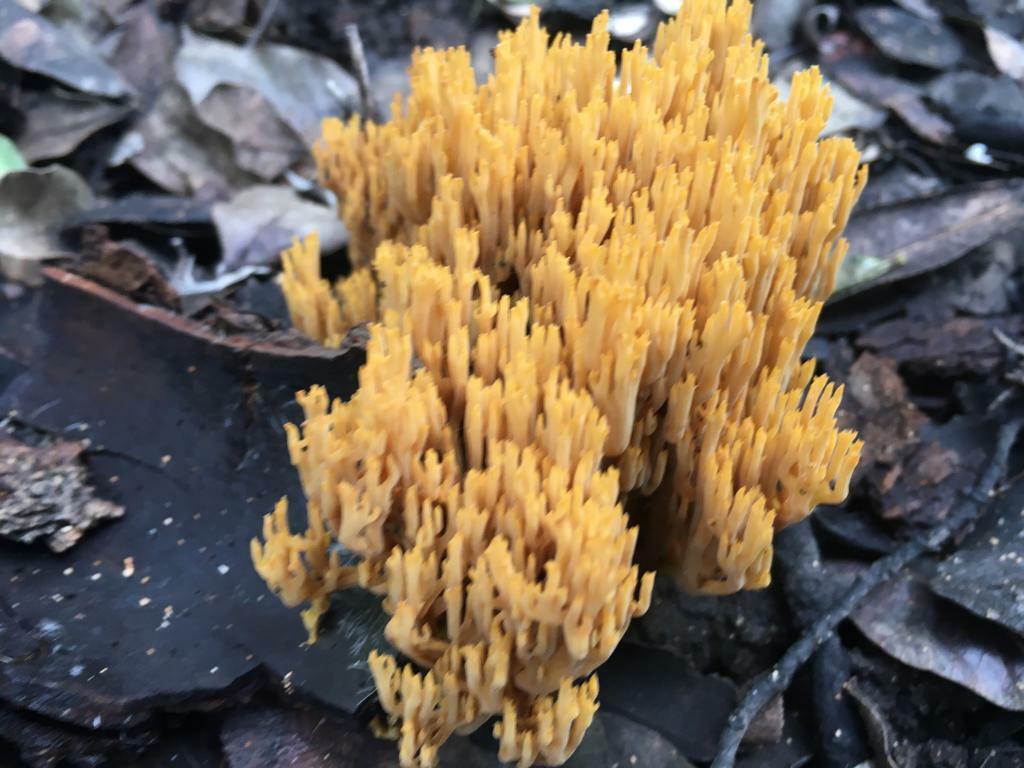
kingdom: Fungi
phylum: Basidiomycota
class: Agaricomycetes
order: Gomphales
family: Gomphaceae
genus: Phaeoclavulina
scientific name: Phaeoclavulina flaccida
